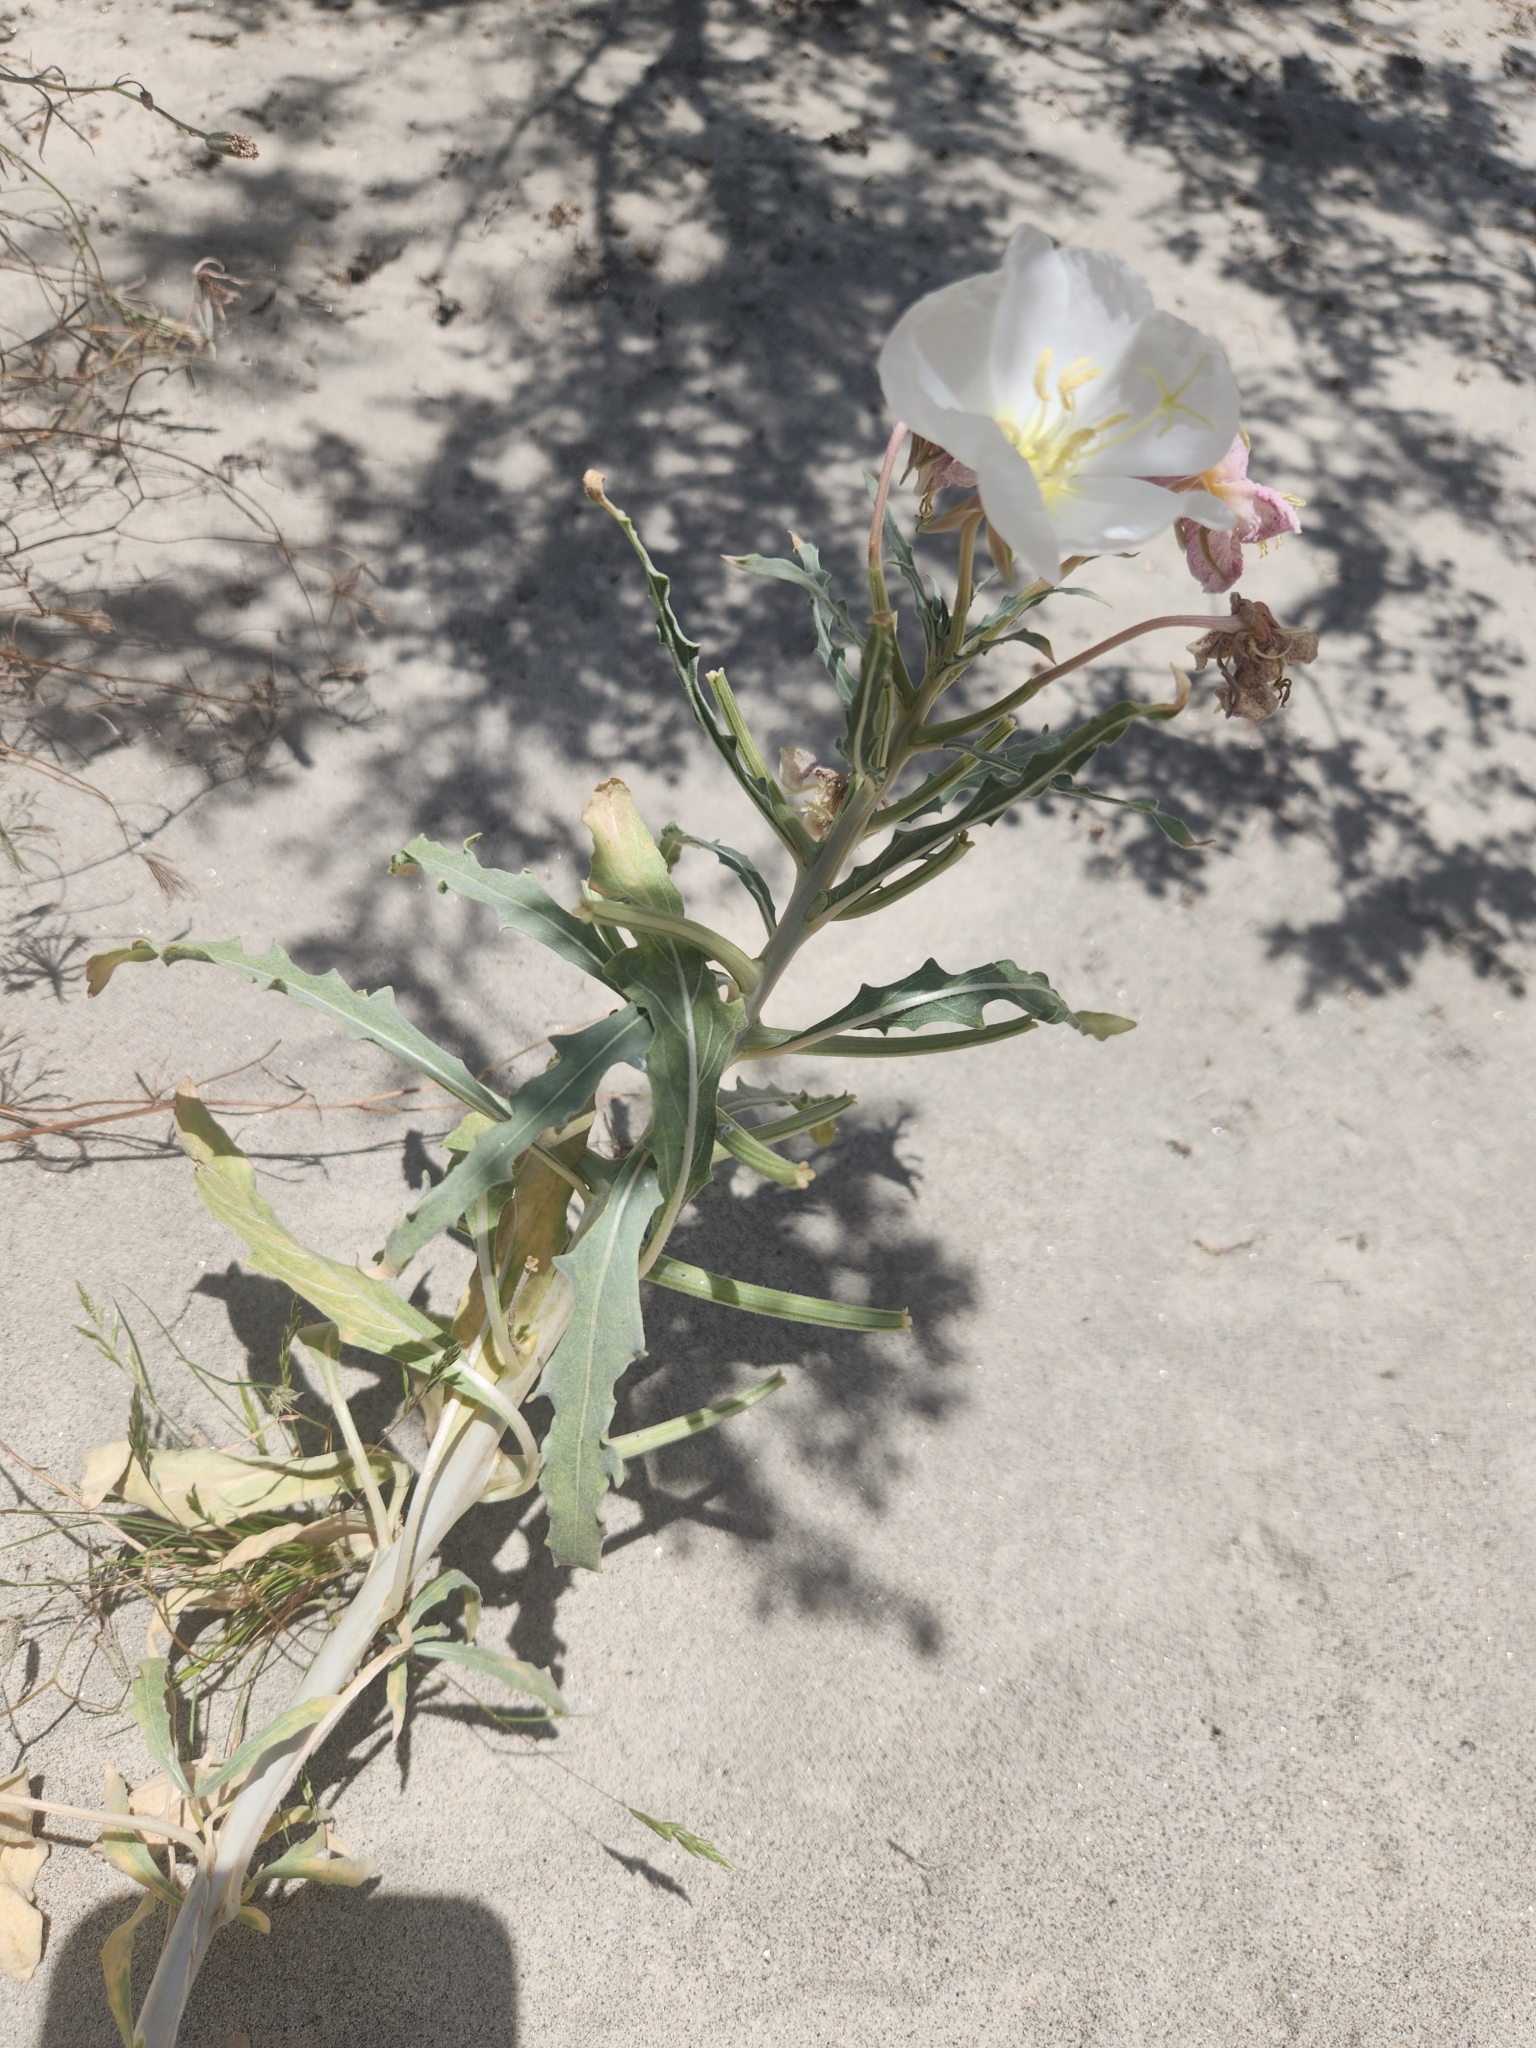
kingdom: Plantae
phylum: Tracheophyta
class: Magnoliopsida
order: Myrtales
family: Onagraceae
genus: Oenothera
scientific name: Oenothera deltoides
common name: Basket evening-primrose
